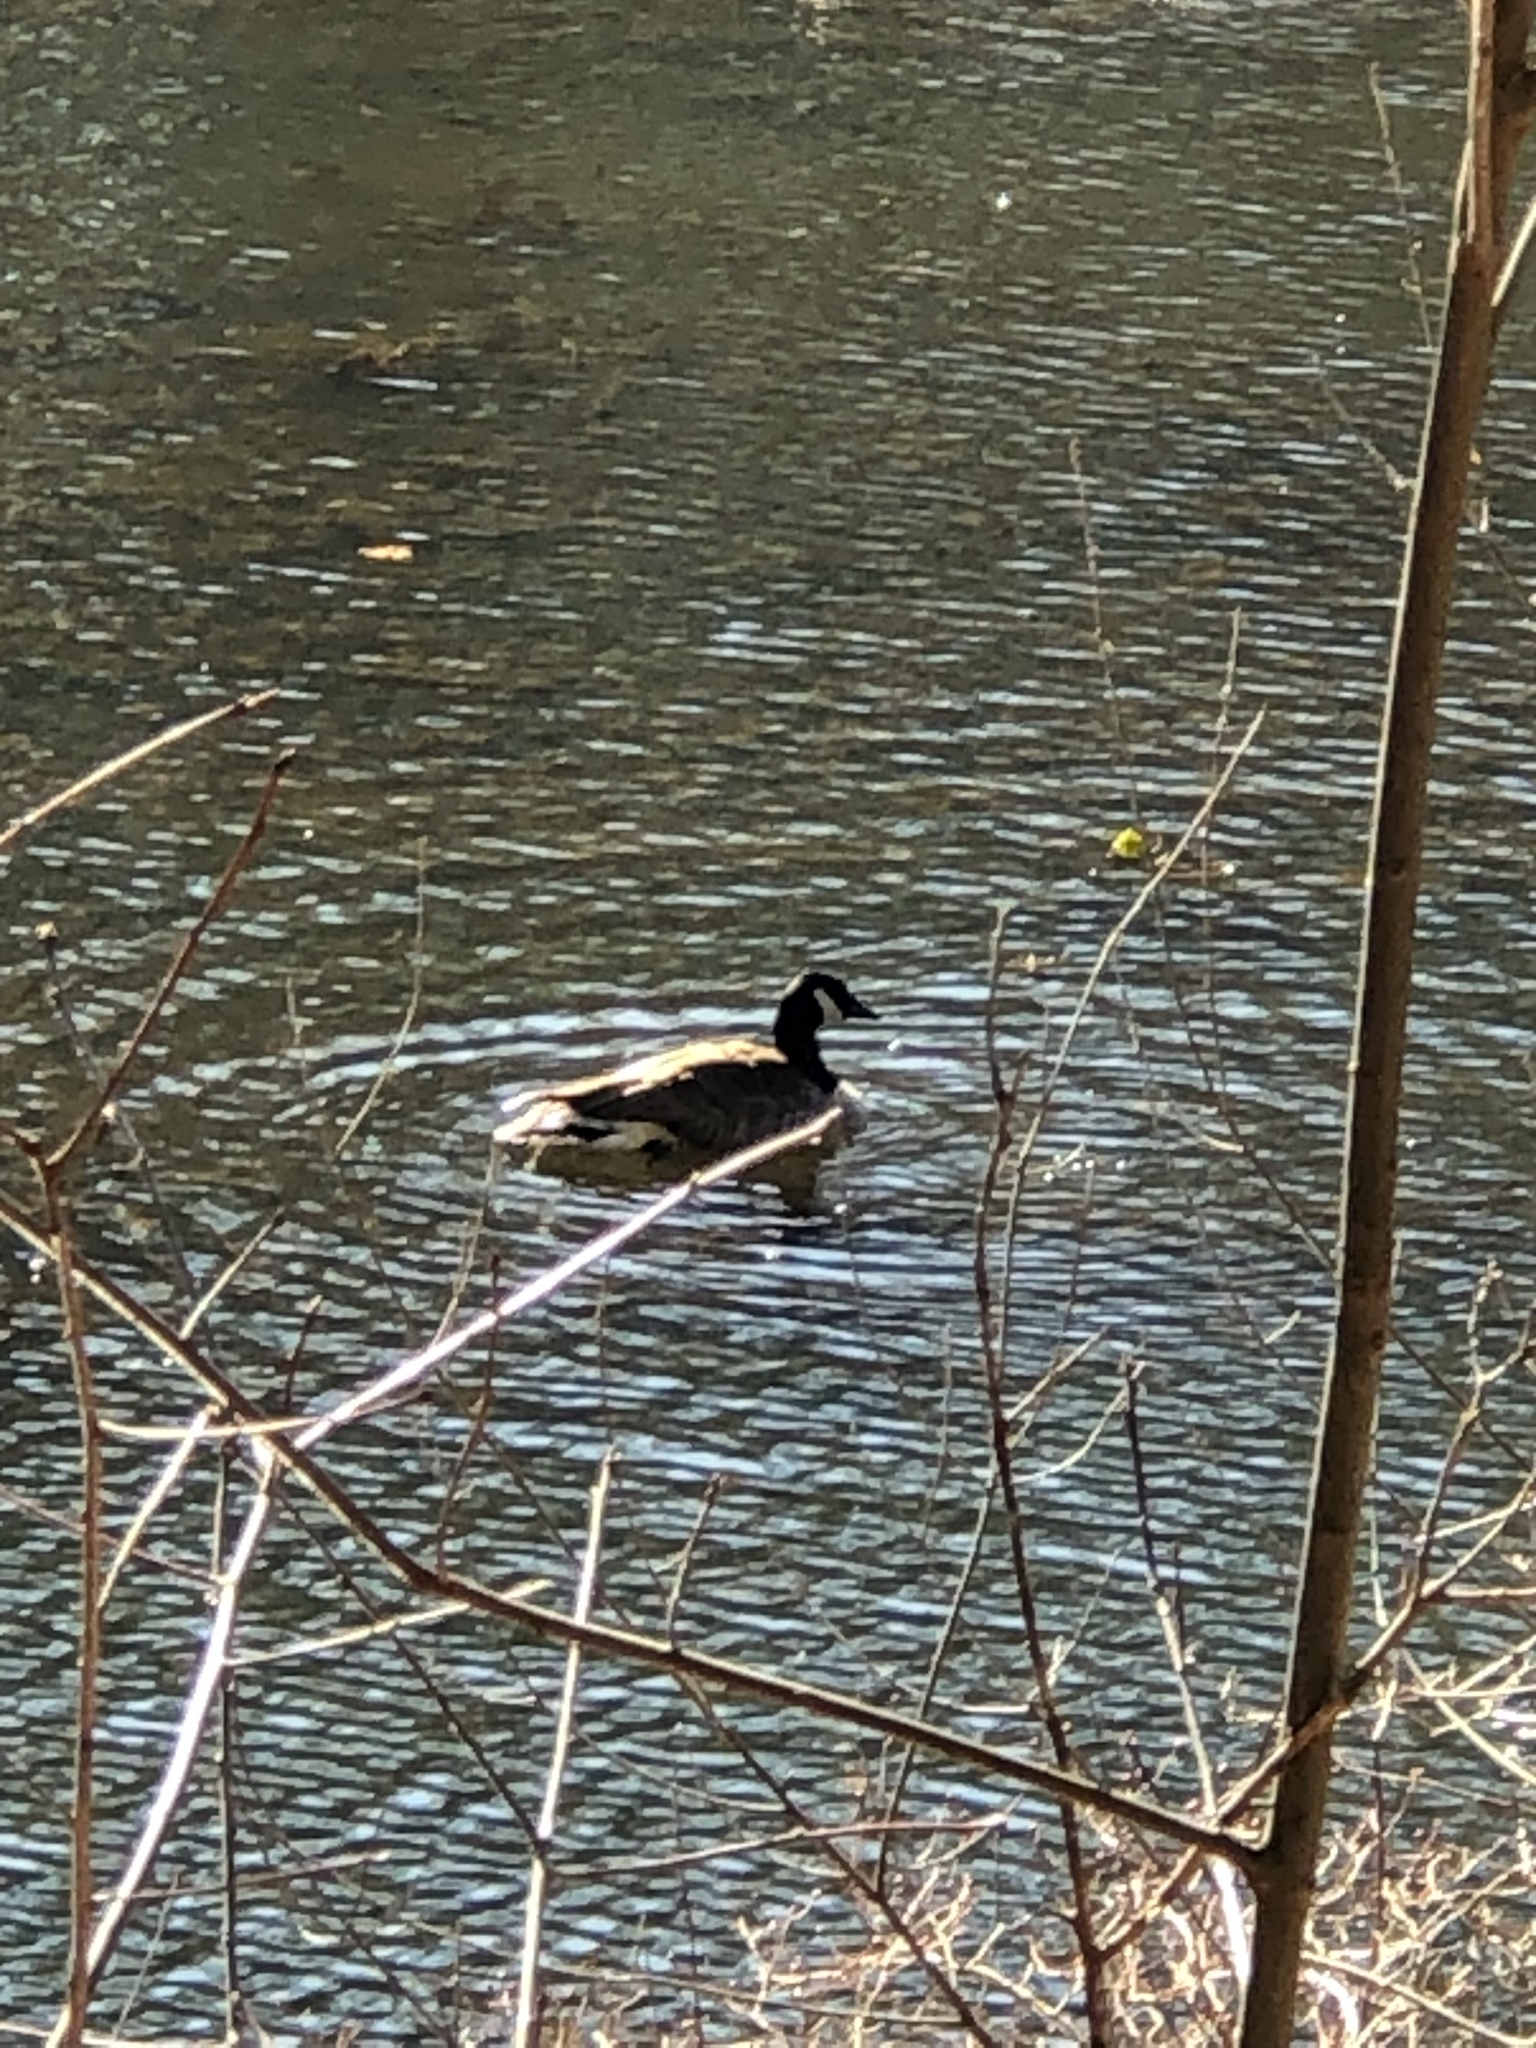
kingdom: Animalia
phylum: Chordata
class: Aves
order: Anseriformes
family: Anatidae
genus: Branta
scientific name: Branta canadensis
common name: Canada goose
